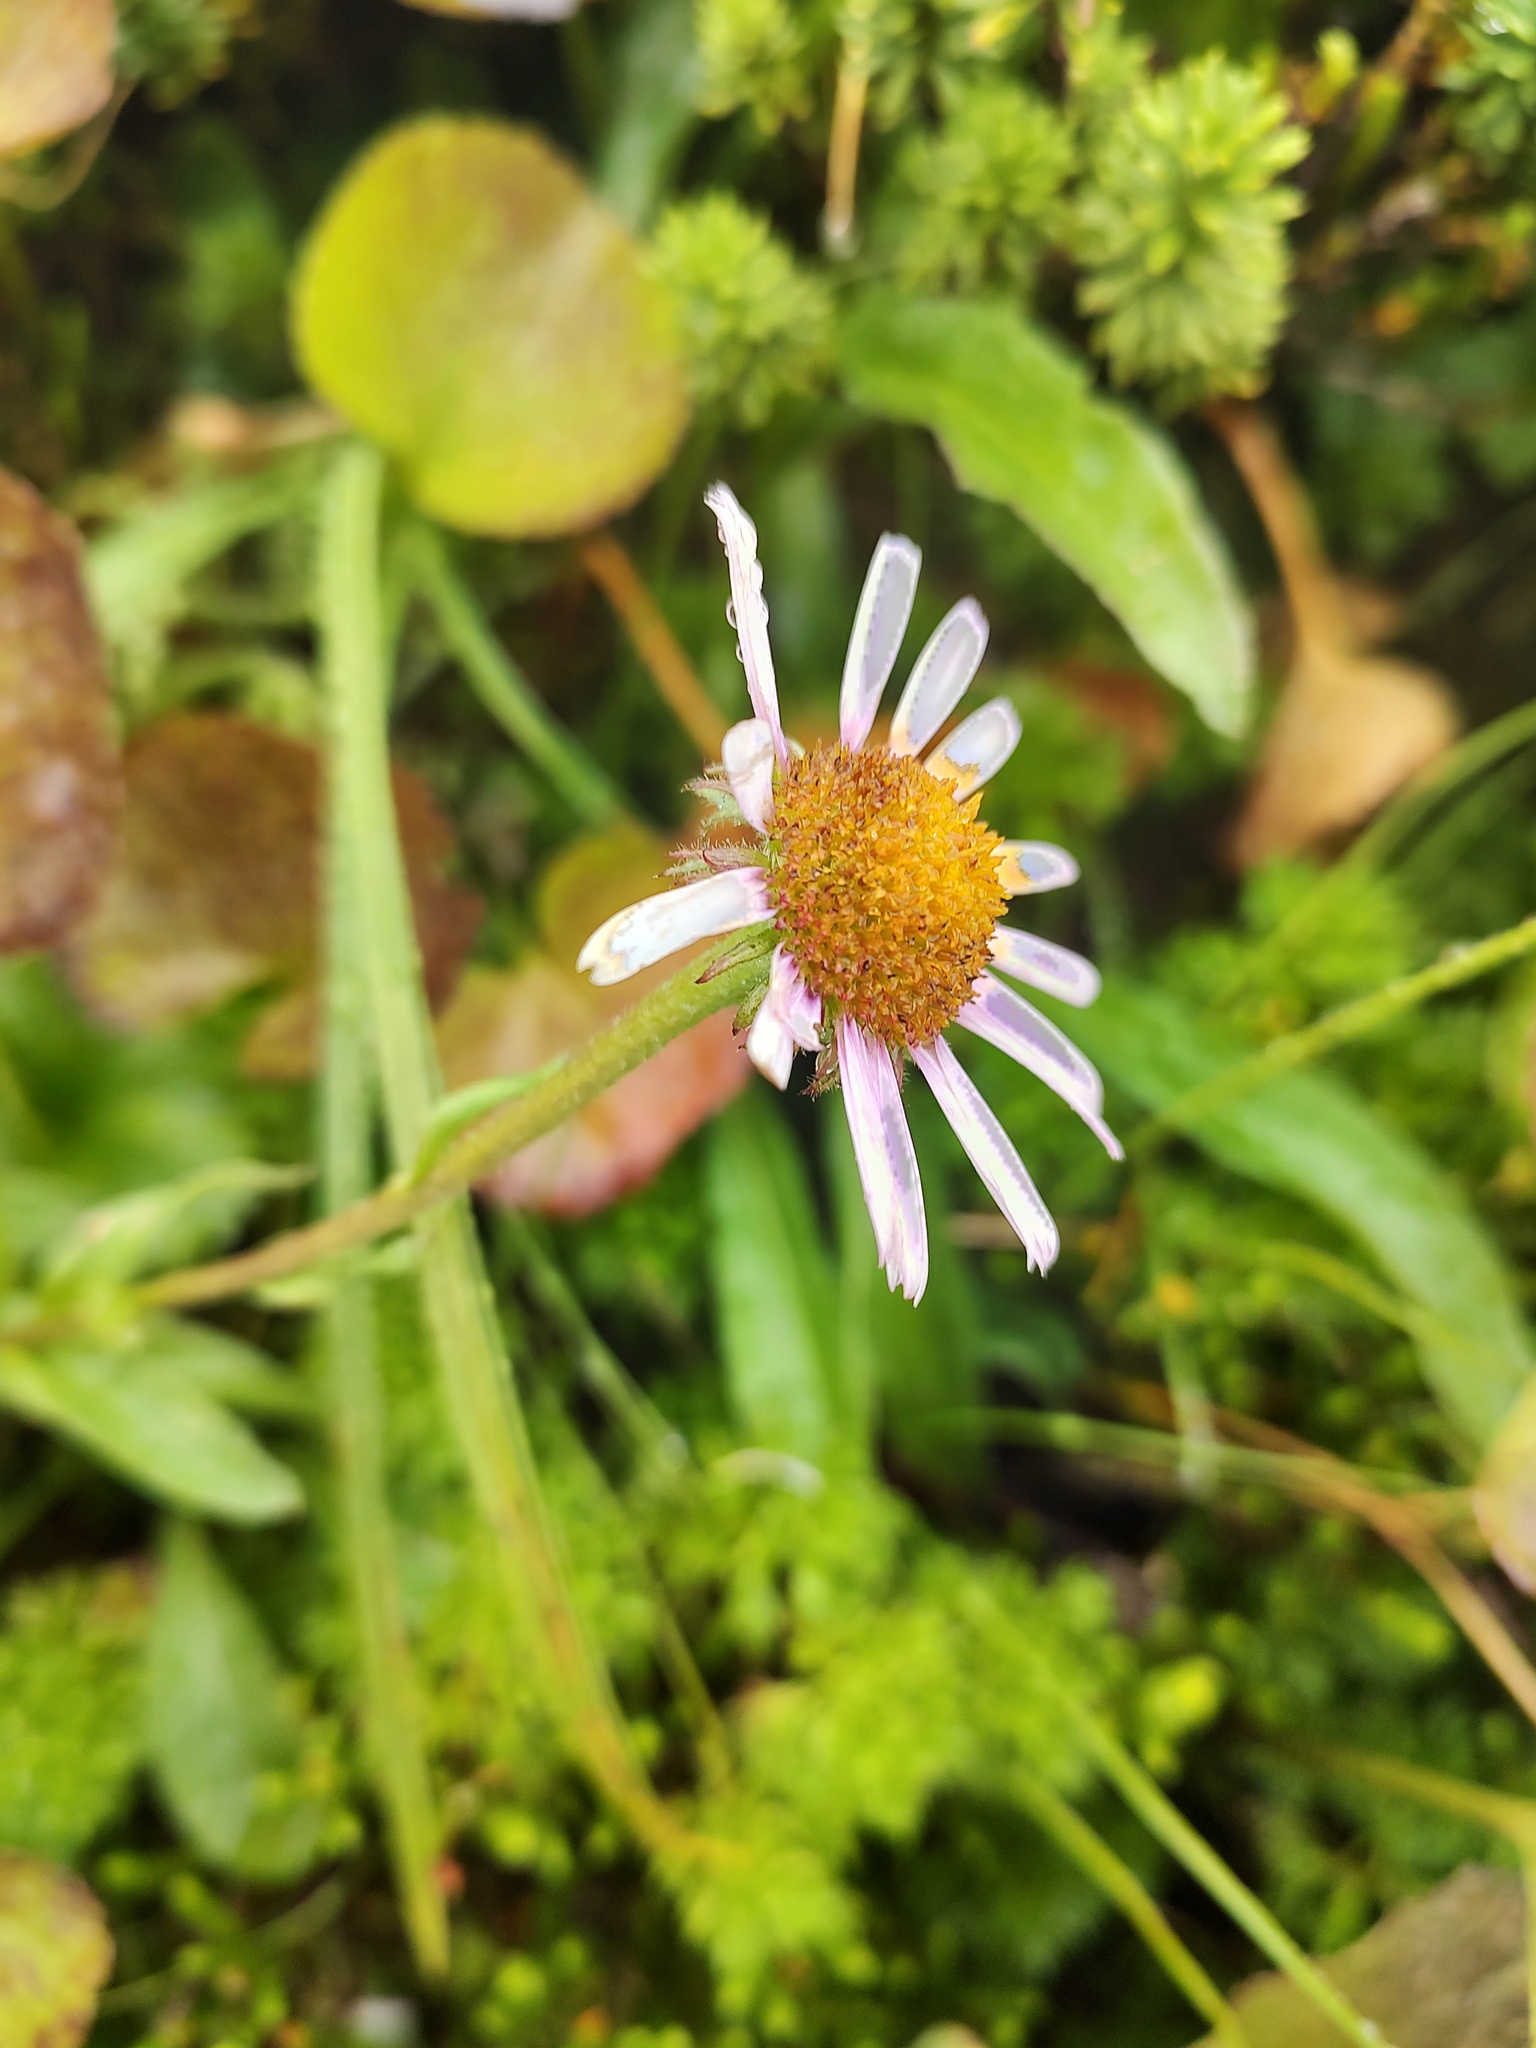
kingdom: Plantae
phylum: Tracheophyta
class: Magnoliopsida
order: Asterales
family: Asteraceae
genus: Erigeron
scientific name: Erigeron peregrinus
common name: Peregrine fleabane
